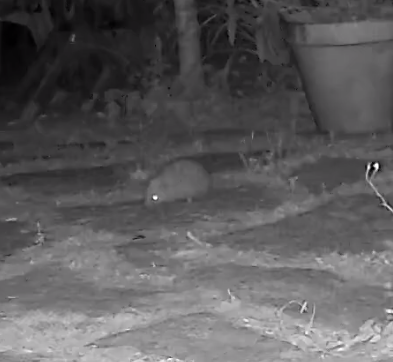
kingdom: Animalia
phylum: Chordata
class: Mammalia
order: Erinaceomorpha
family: Erinaceidae
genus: Erinaceus
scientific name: Erinaceus europaeus
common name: West european hedgehog
